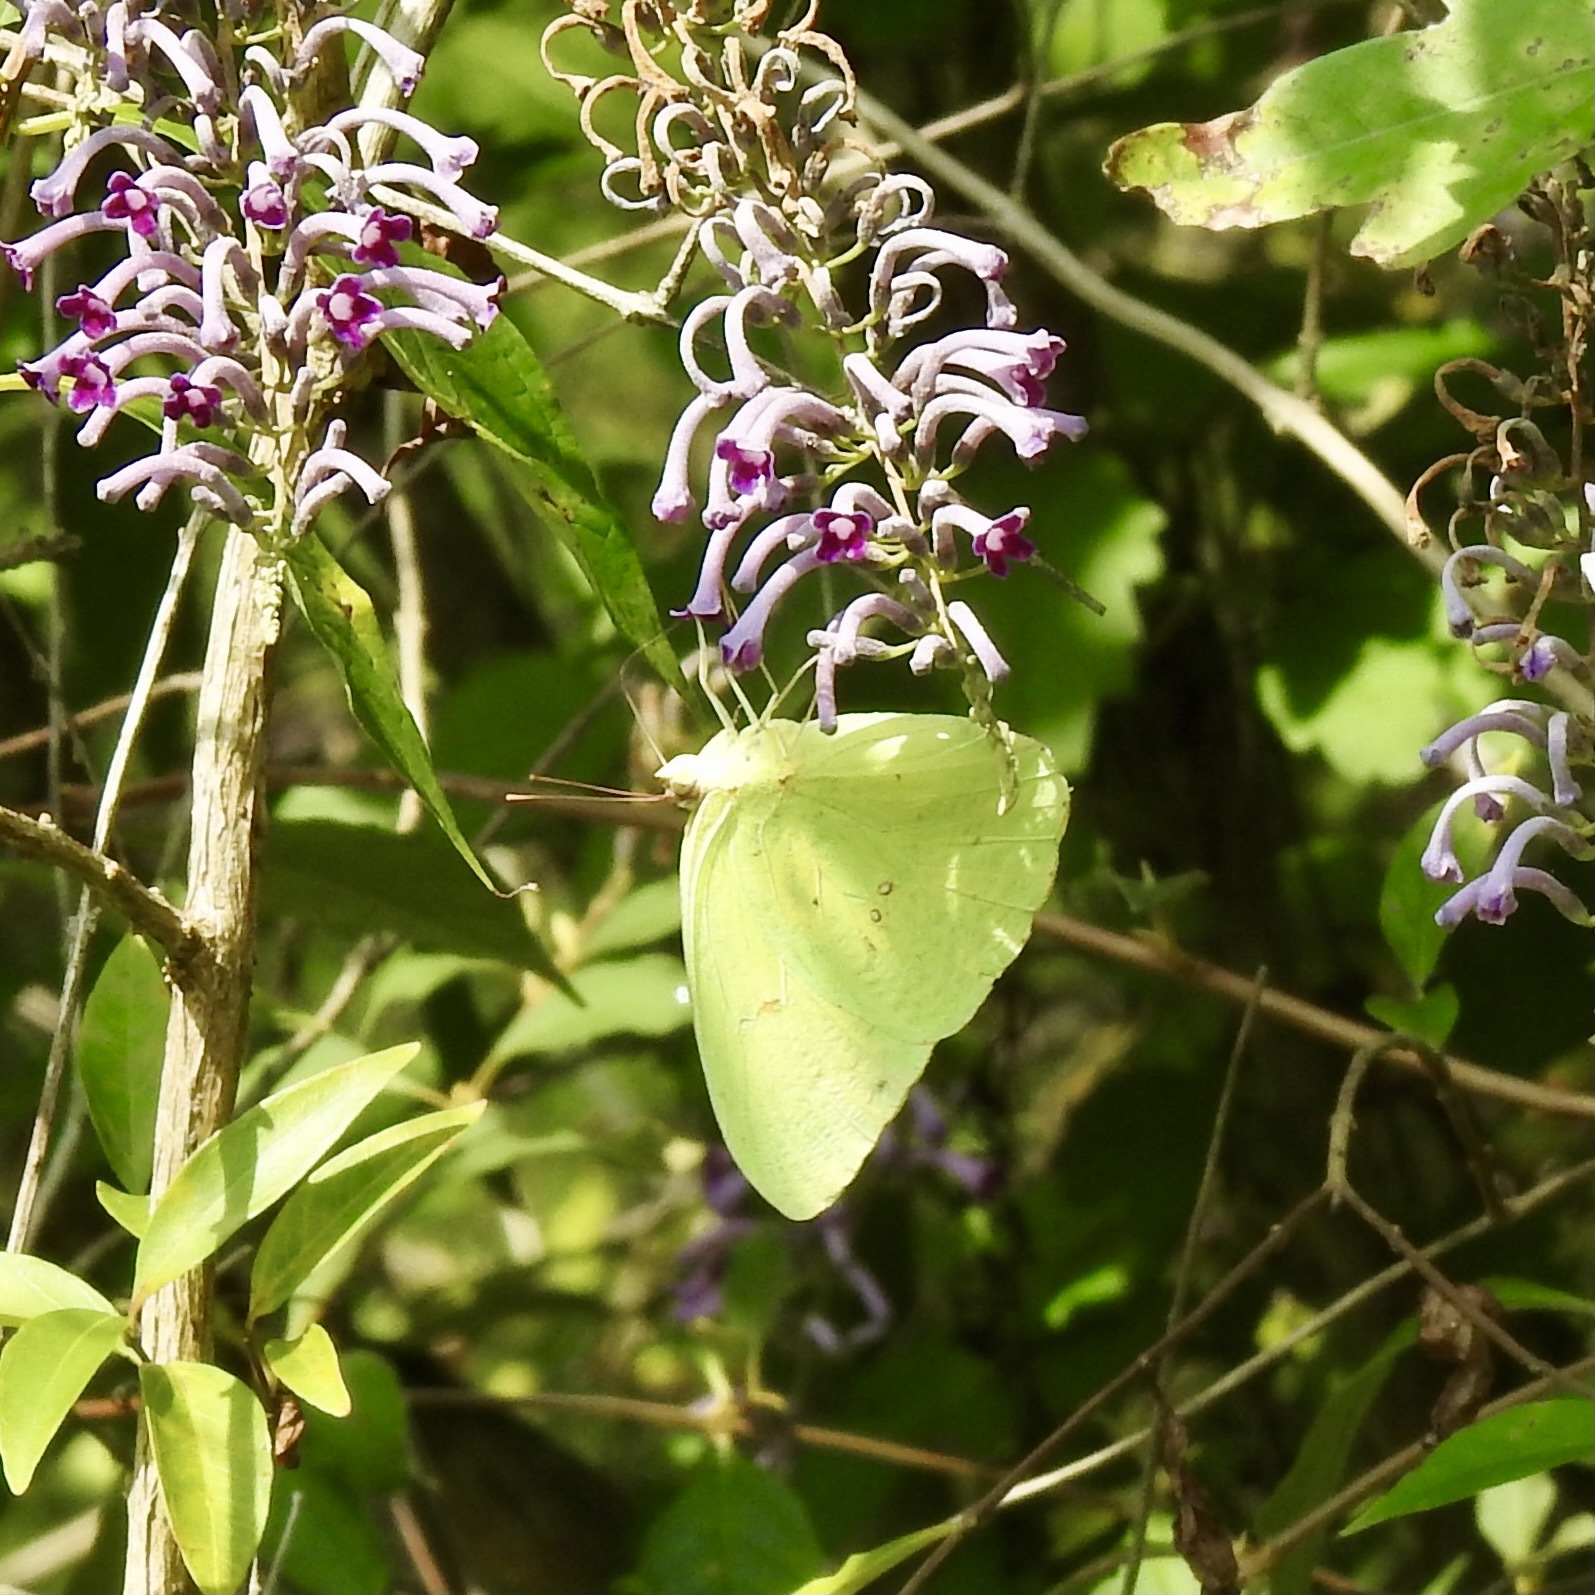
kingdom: Animalia
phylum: Arthropoda
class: Insecta
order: Lepidoptera
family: Pieridae
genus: Phoebis
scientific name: Phoebis sennae
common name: Cloudless sulphur
